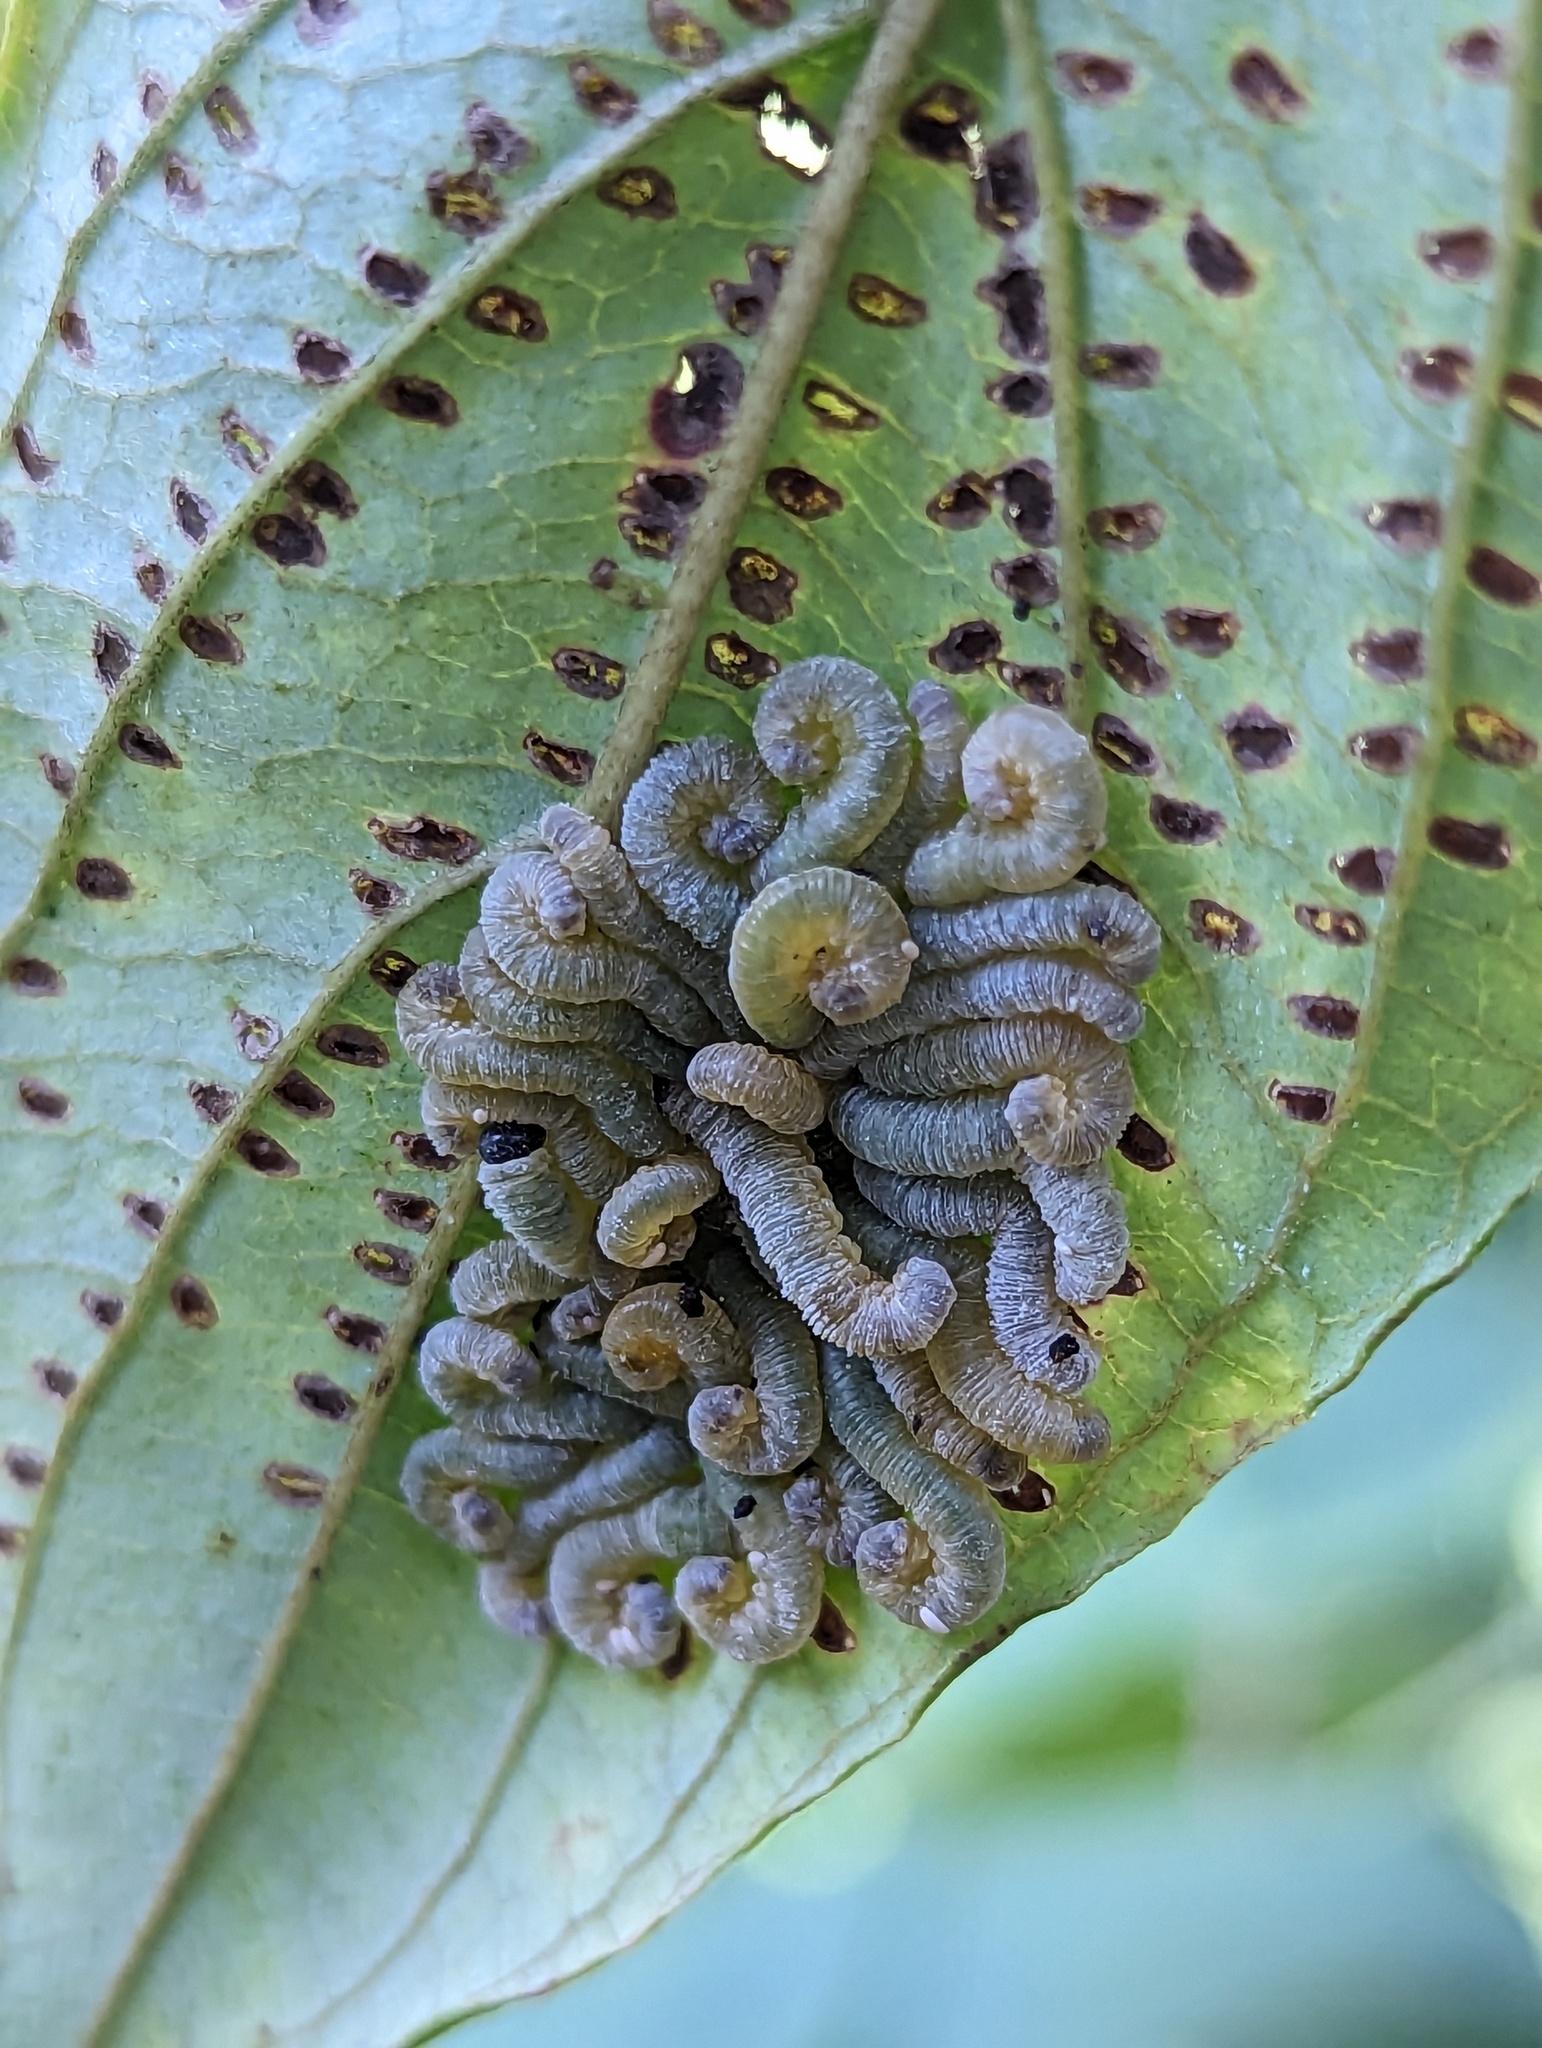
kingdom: Animalia
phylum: Arthropoda
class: Insecta
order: Hymenoptera
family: Tenthredinidae
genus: Macremphytus
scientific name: Macremphytus testaceus
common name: Dogwood sawfly
